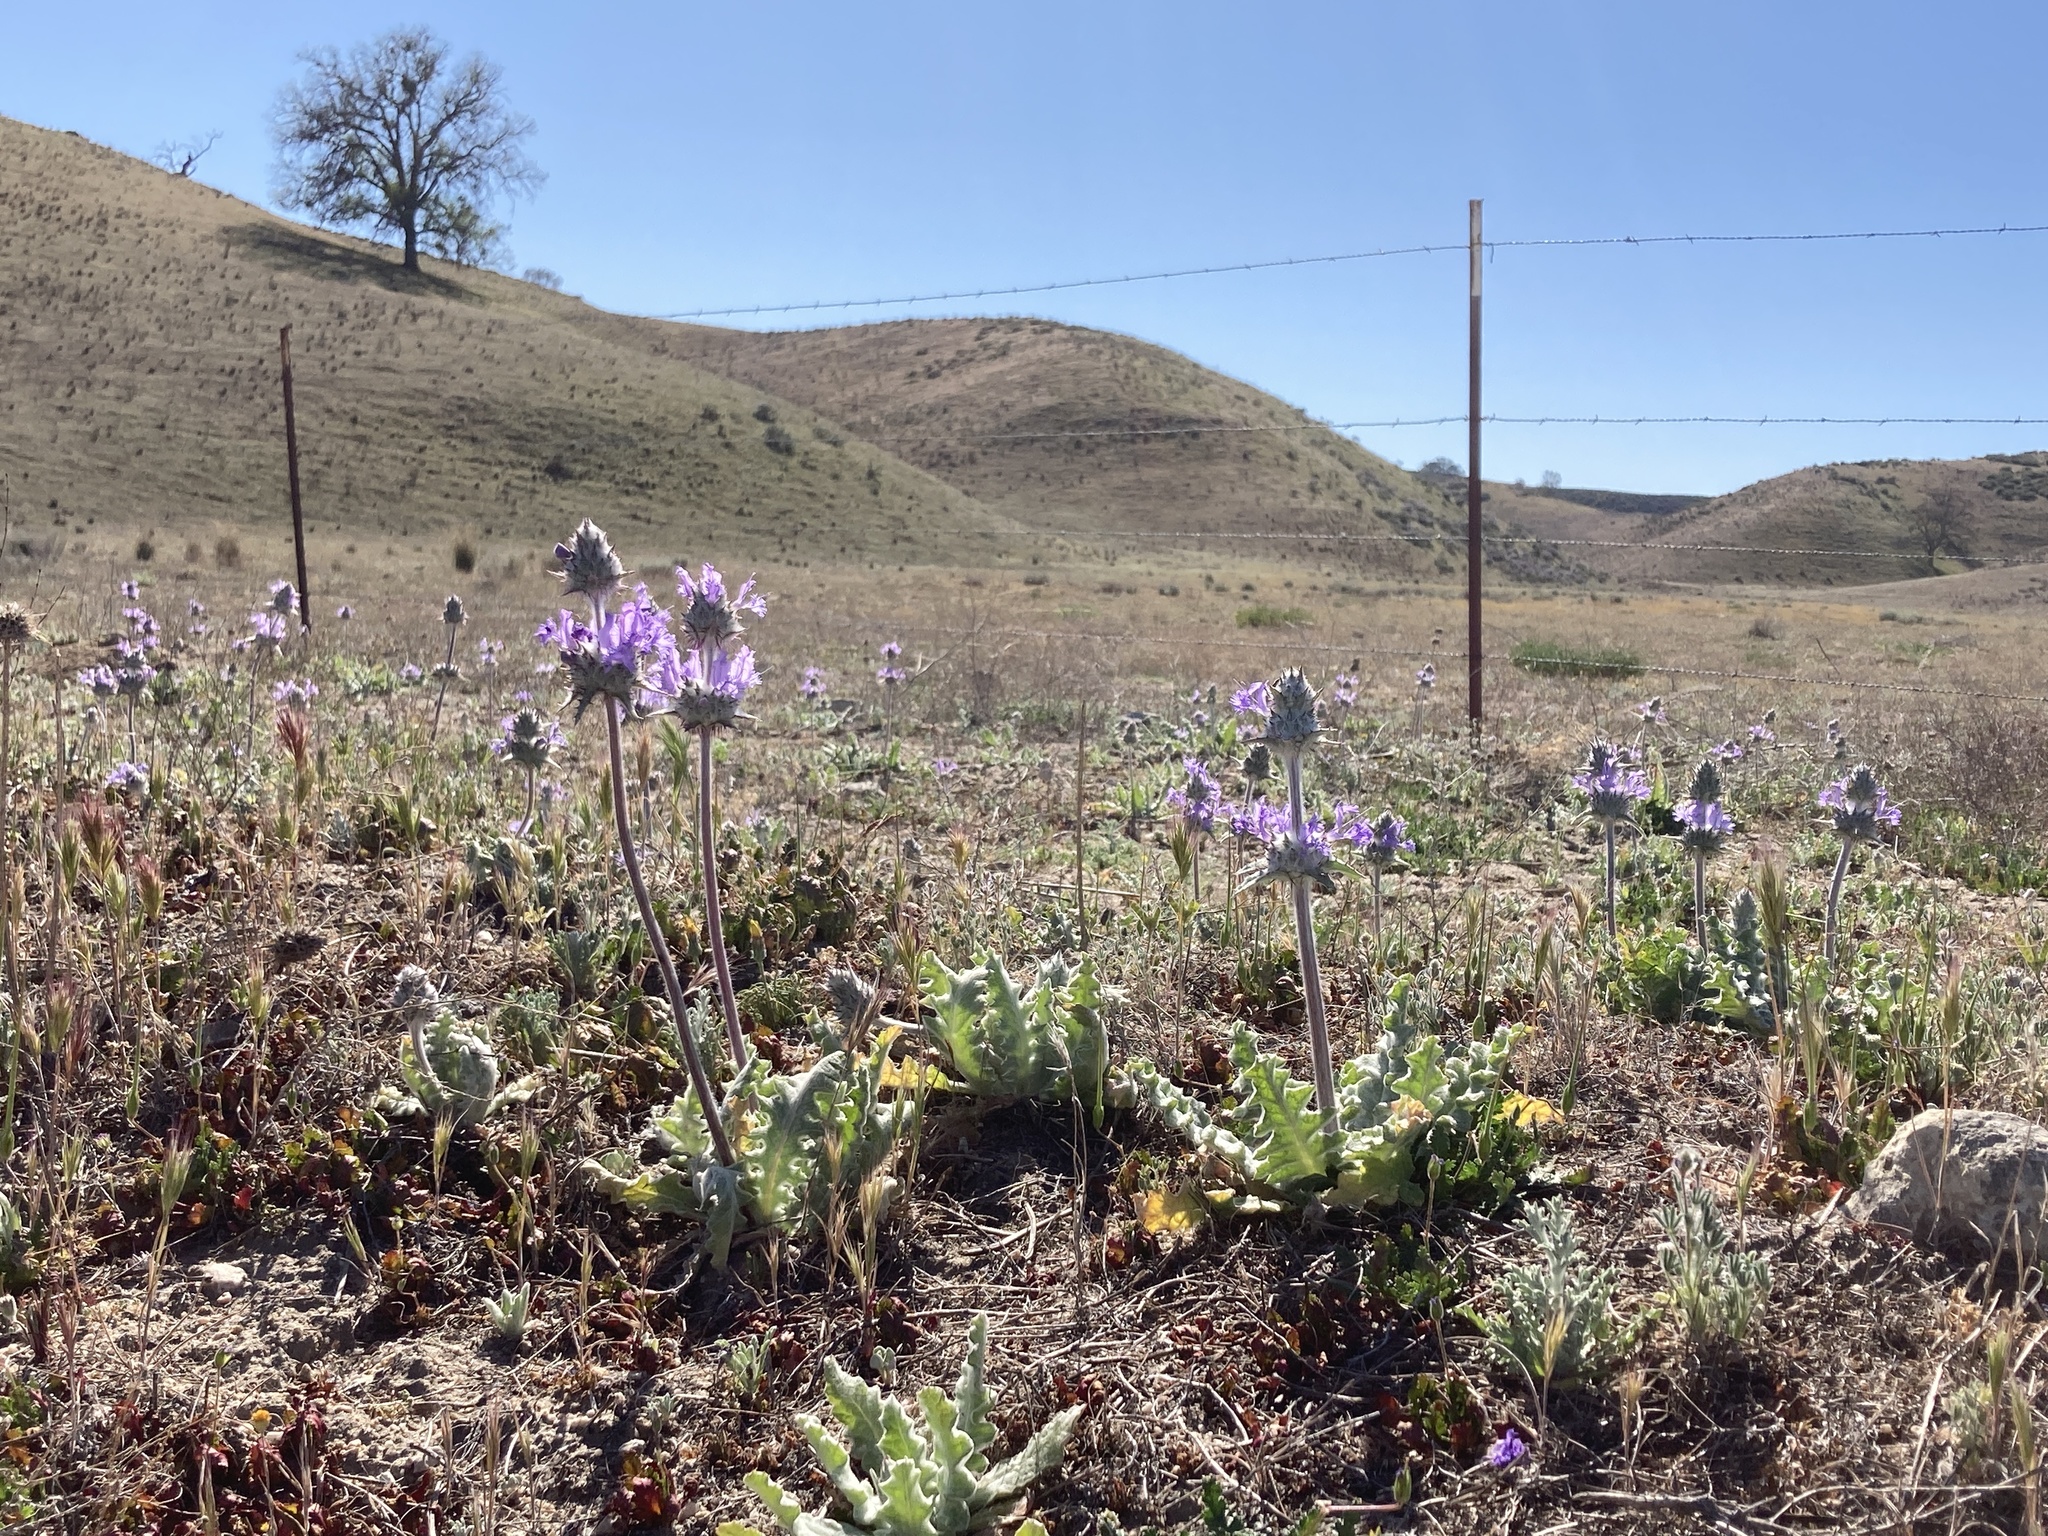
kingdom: Plantae
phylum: Tracheophyta
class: Magnoliopsida
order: Lamiales
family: Lamiaceae
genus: Salvia
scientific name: Salvia carduacea
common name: Thistle sage
